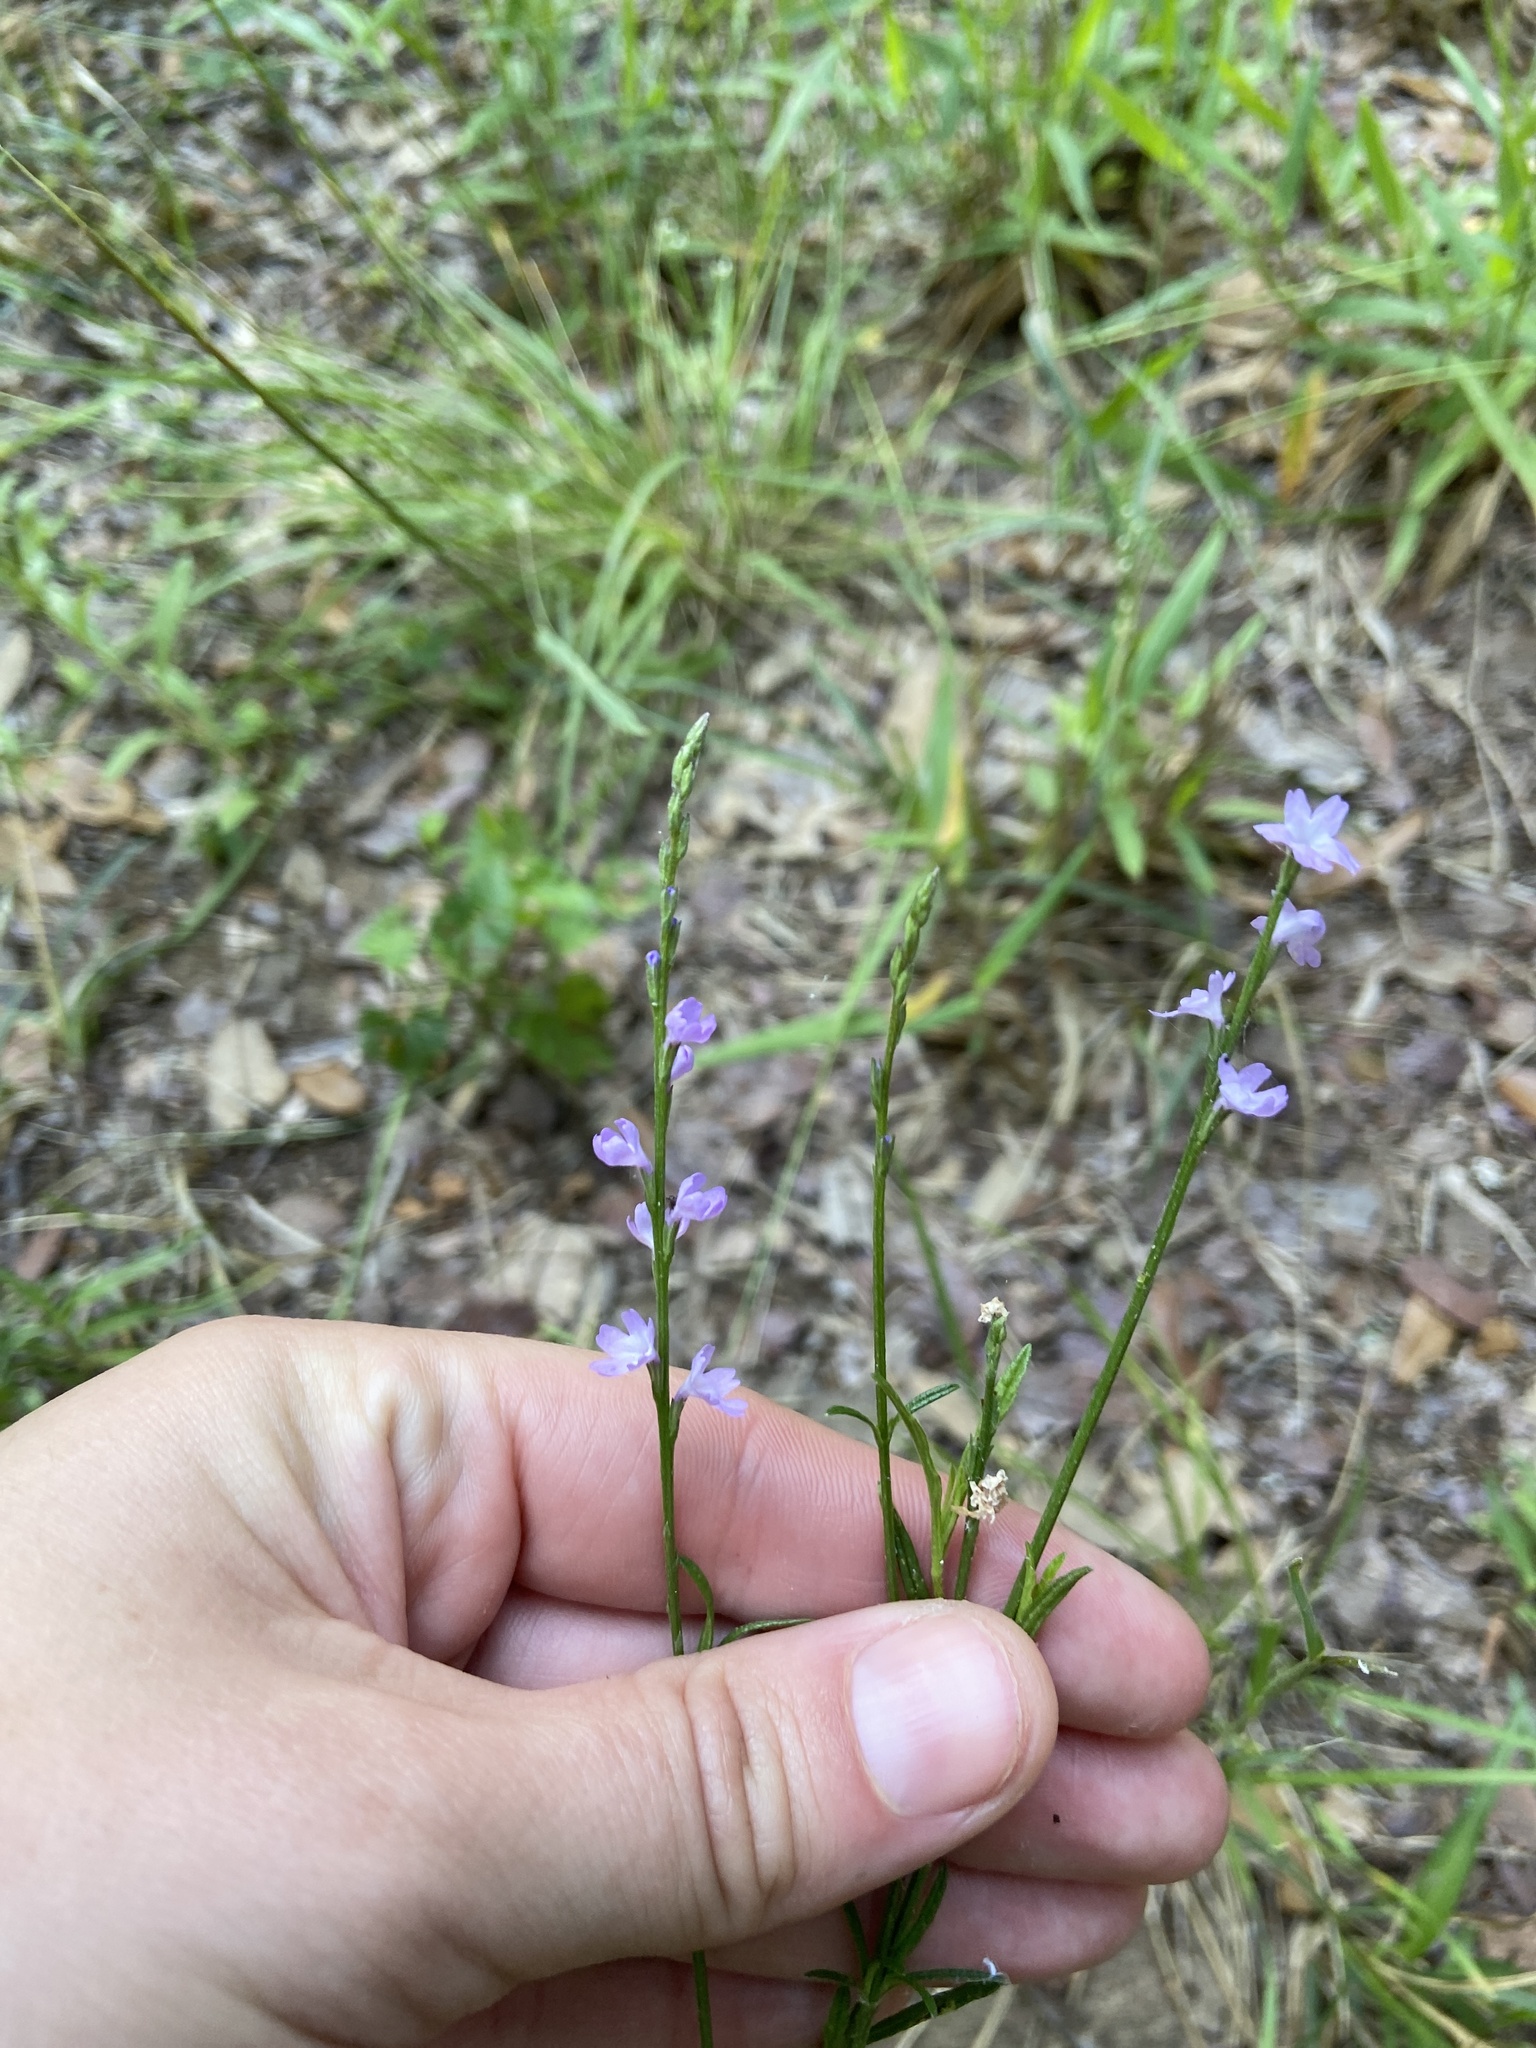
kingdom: Plantae
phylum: Tracheophyta
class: Magnoliopsida
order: Lamiales
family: Verbenaceae
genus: Verbena
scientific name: Verbena halei
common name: Texas vervain
